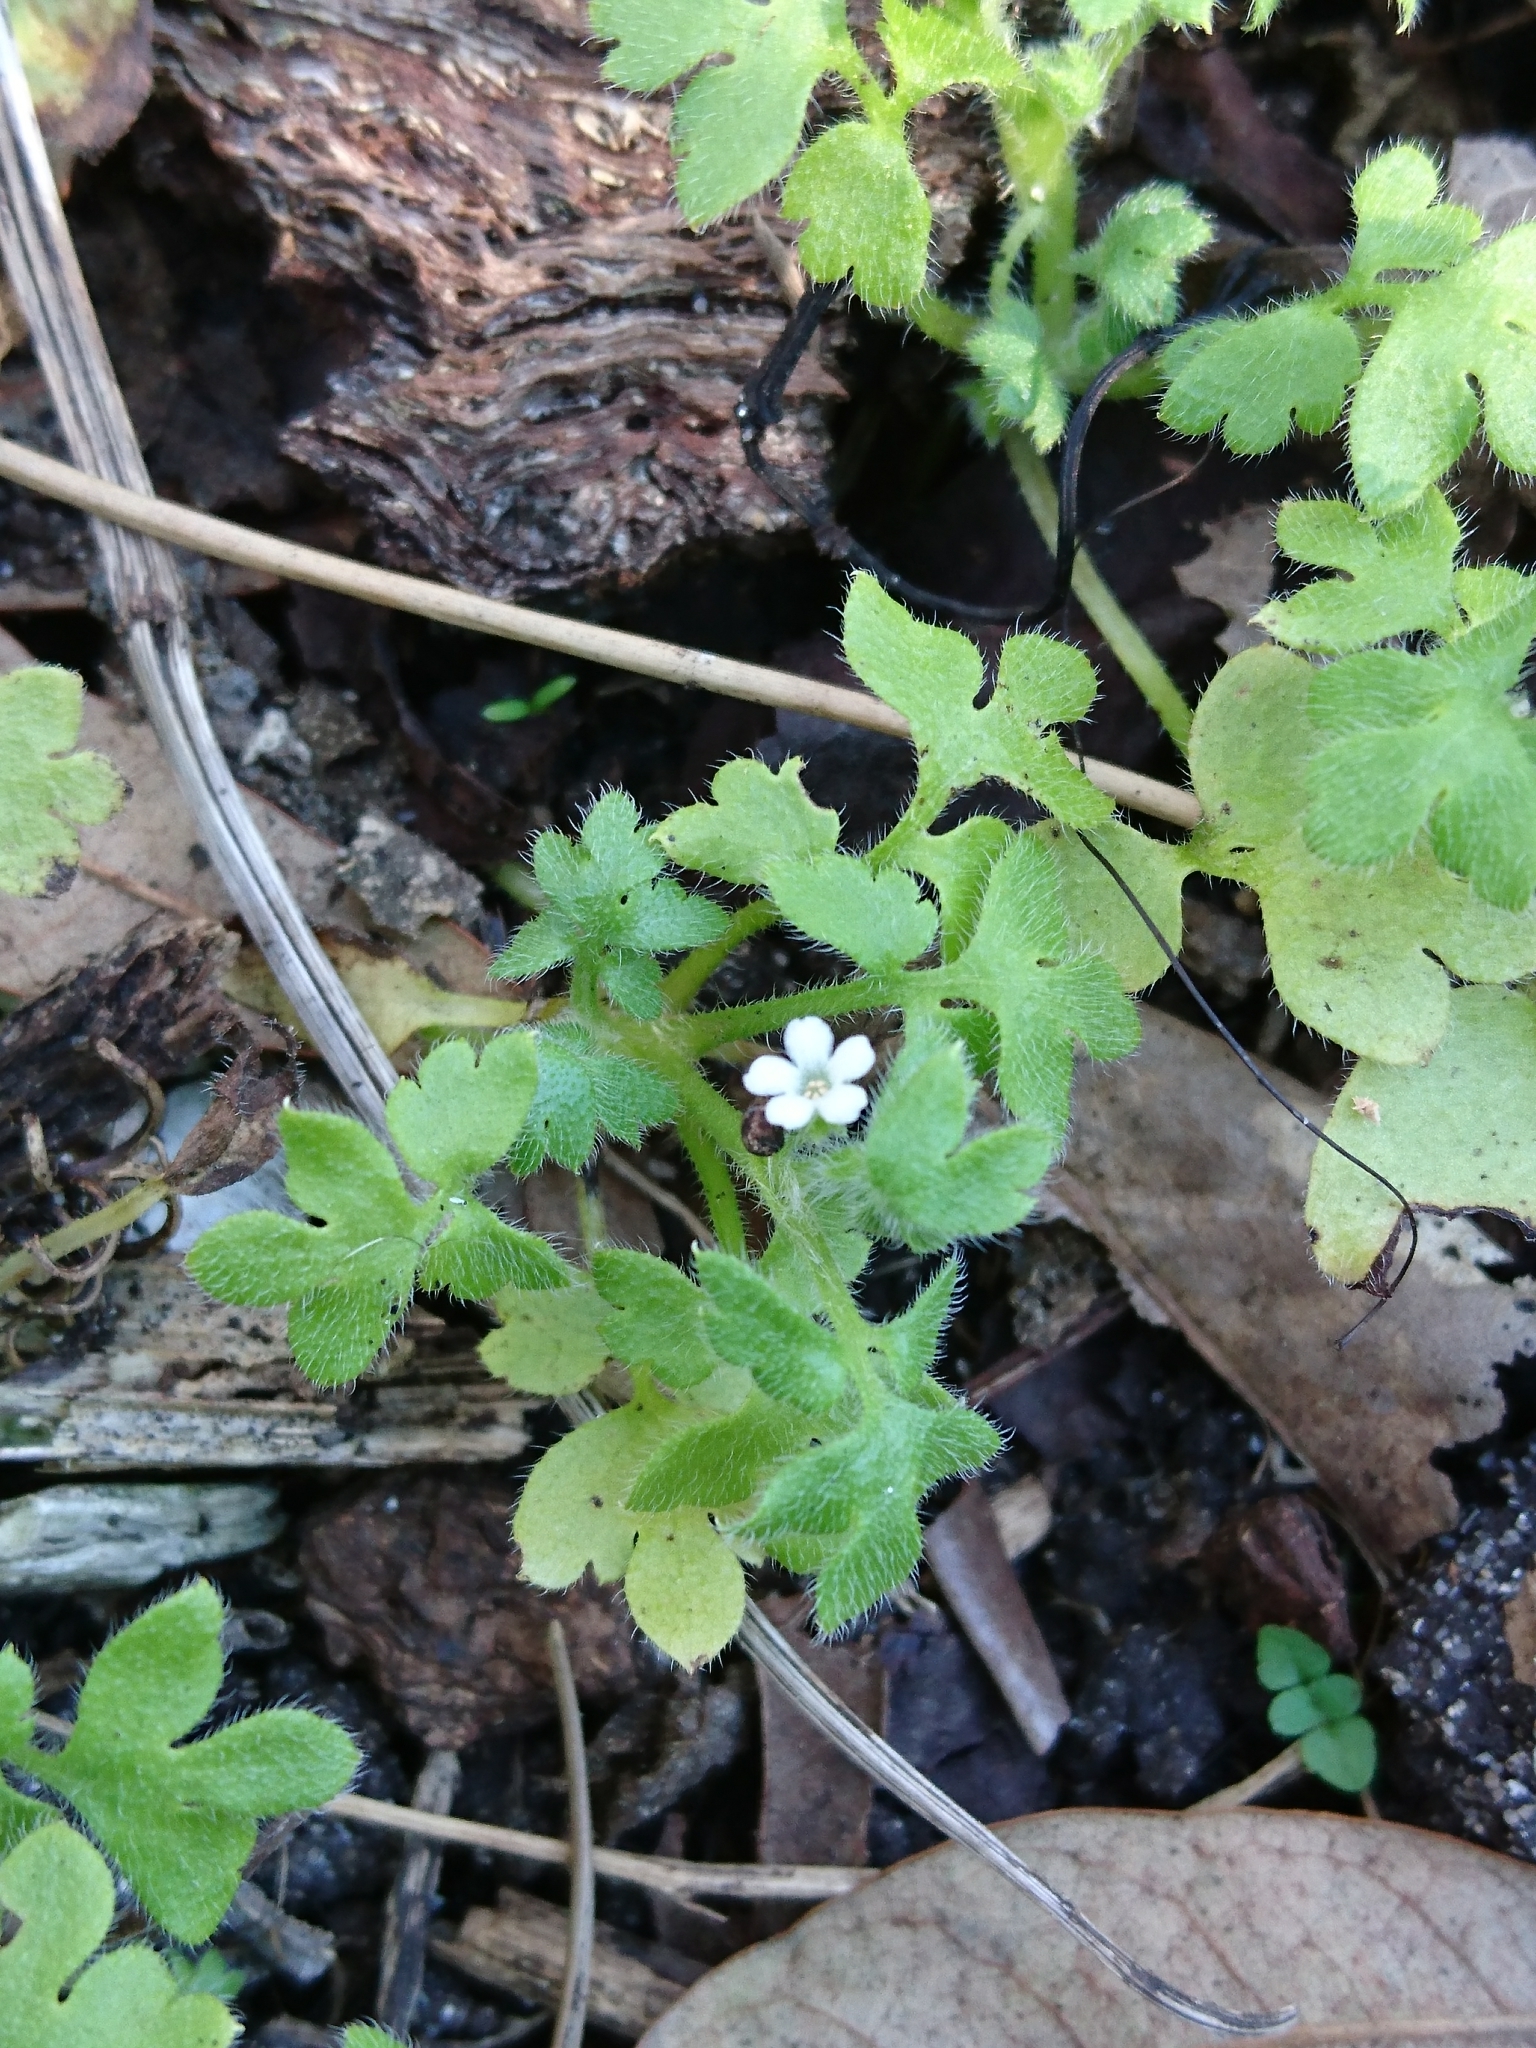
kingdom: Plantae
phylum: Tracheophyta
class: Magnoliopsida
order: Boraginales
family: Hydrophyllaceae
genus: Nemophila
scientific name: Nemophila aphylla
